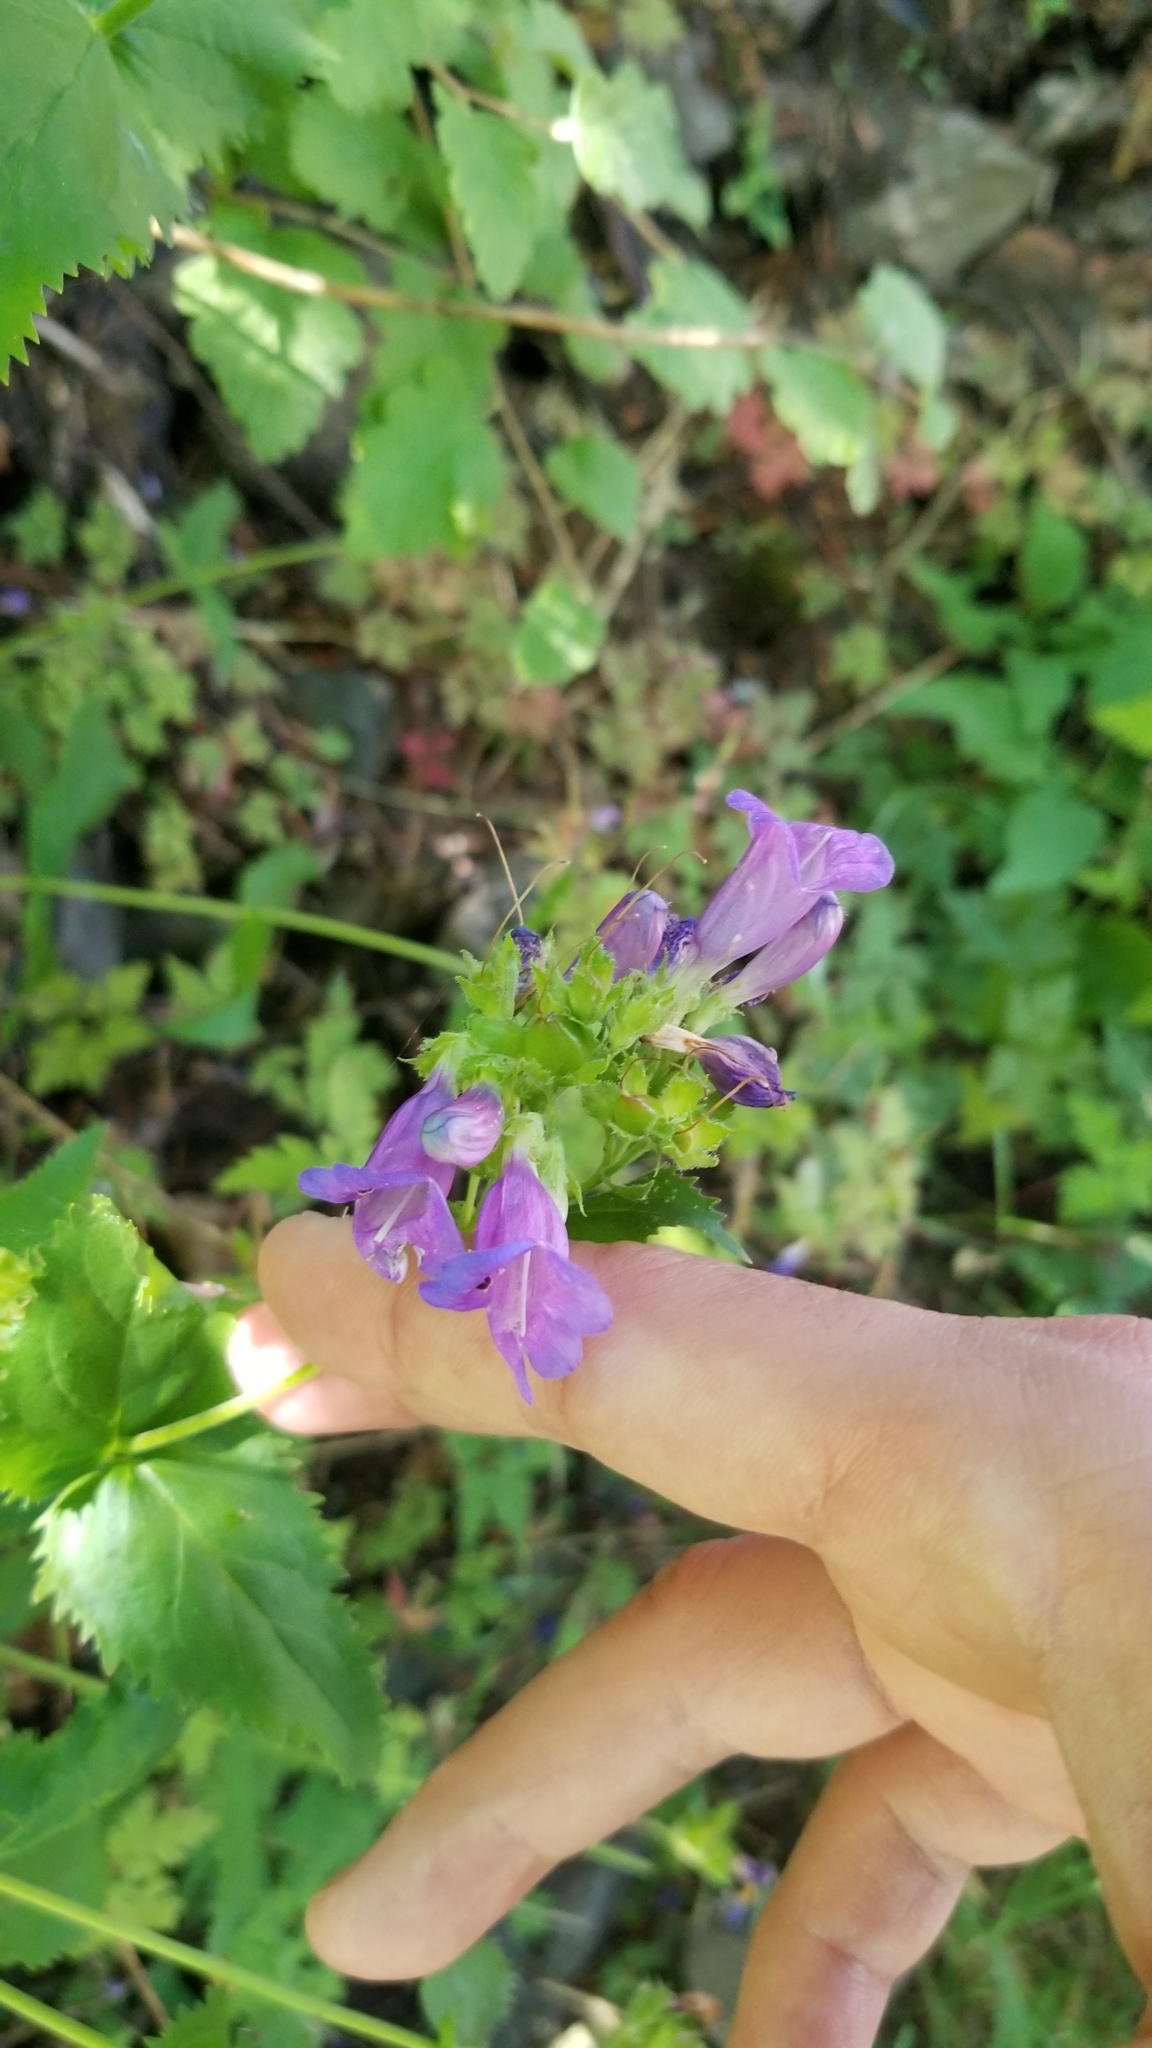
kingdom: Plantae
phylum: Tracheophyta
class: Magnoliopsida
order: Lamiales
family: Plantaginaceae
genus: Penstemon
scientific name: Penstemon serrulatus
